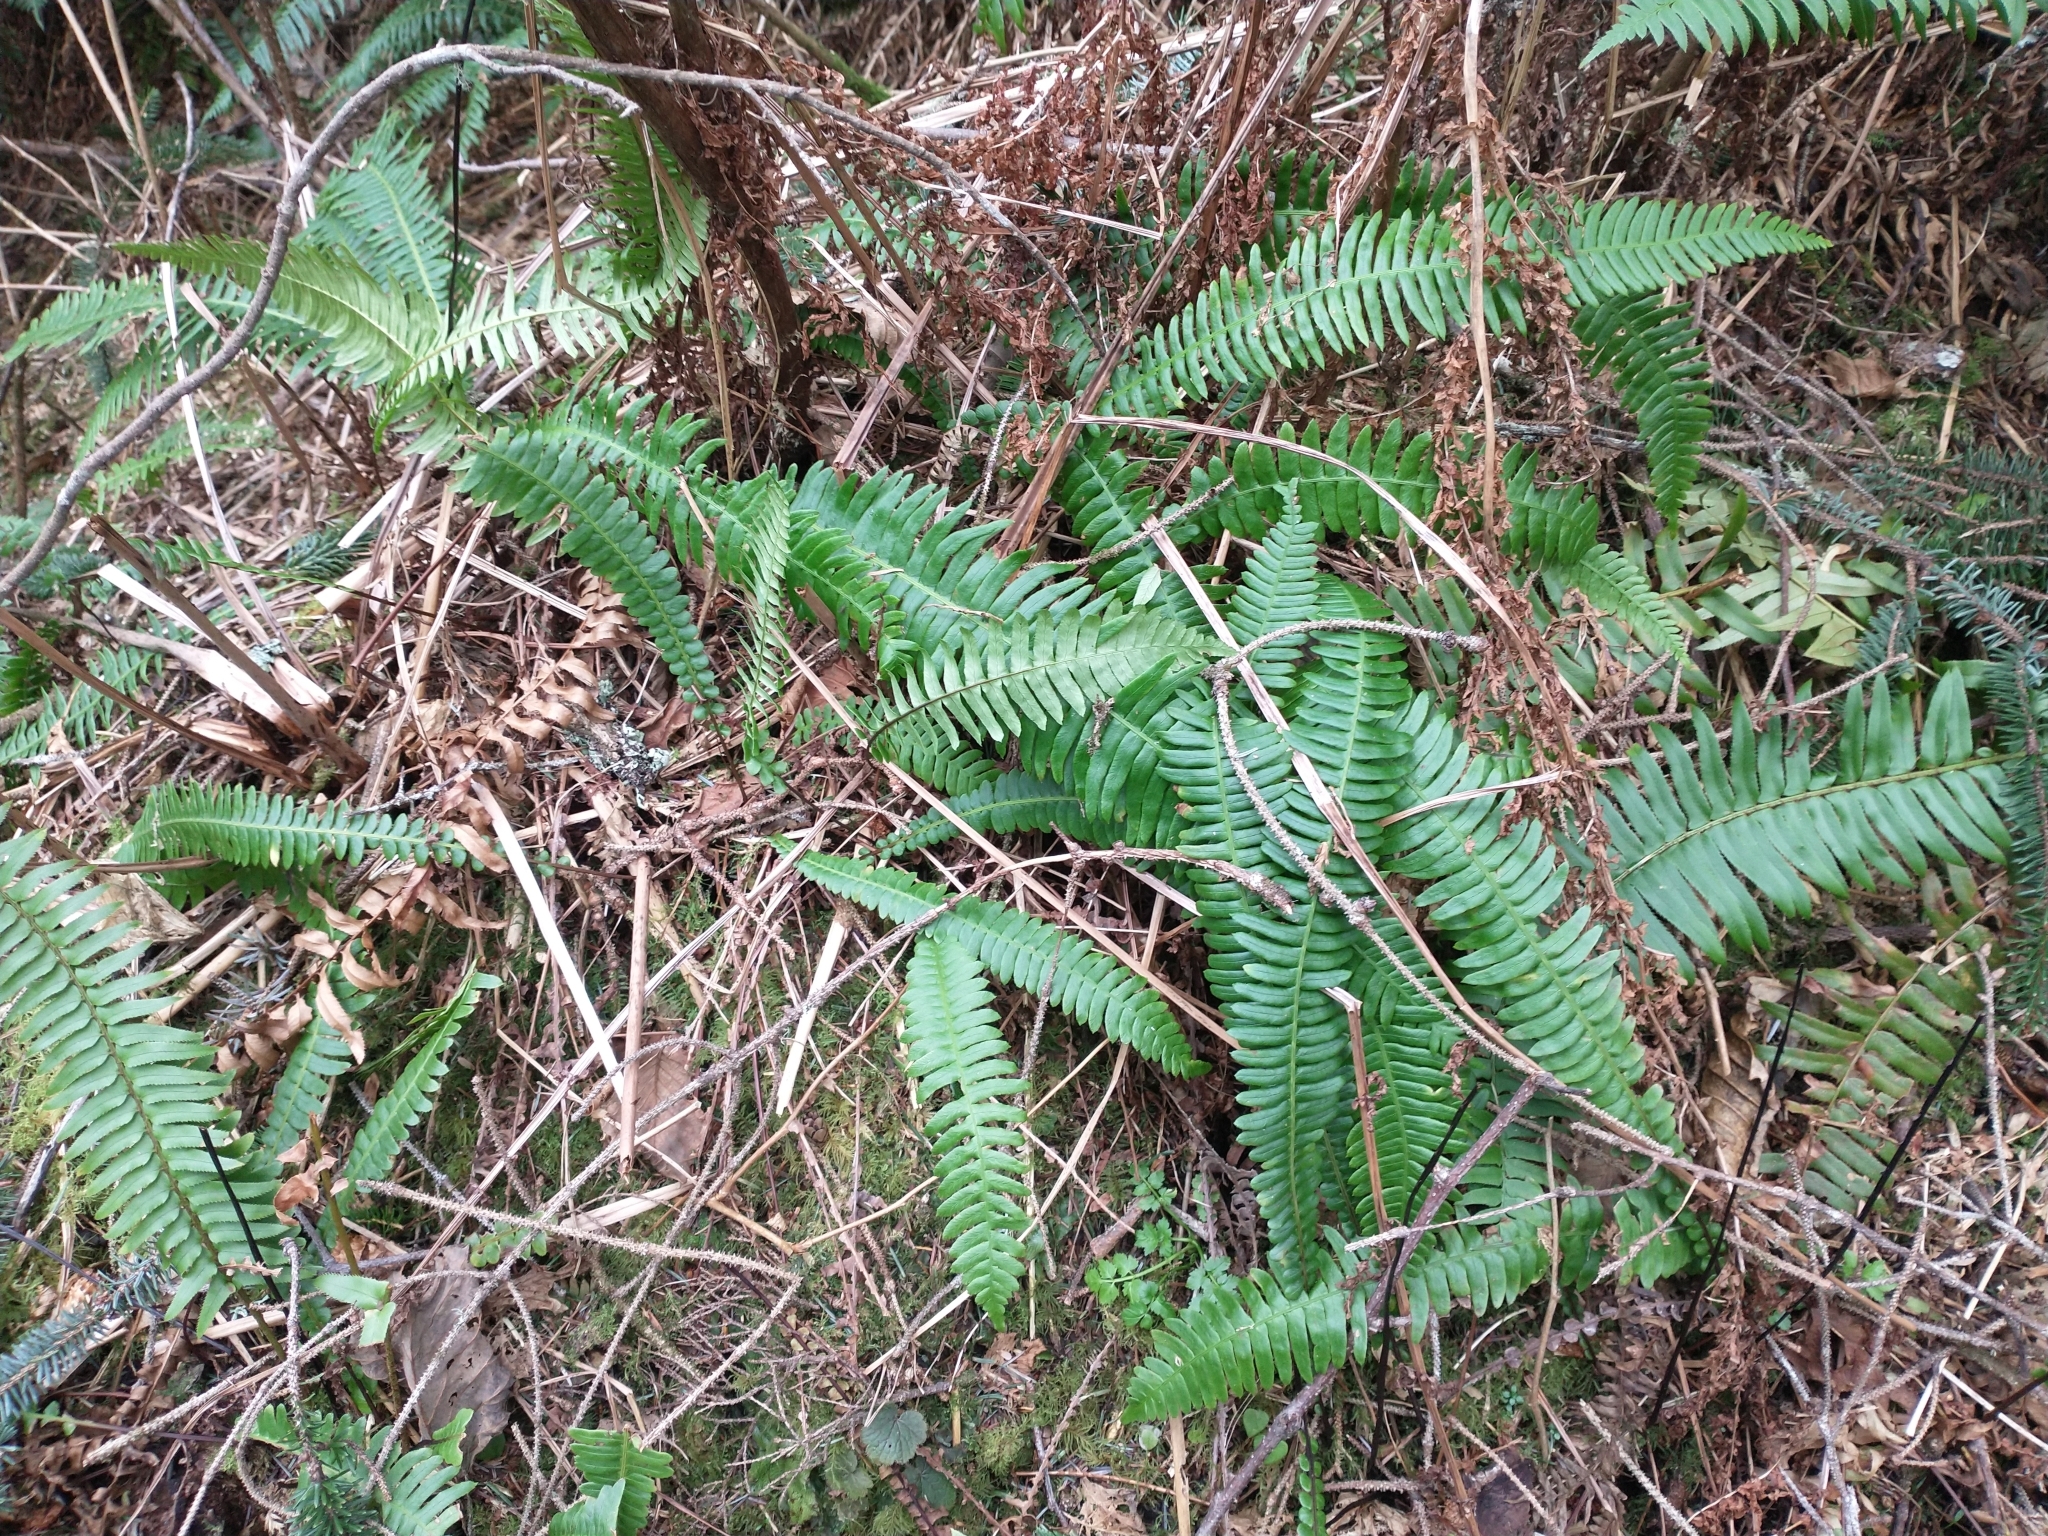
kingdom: Plantae
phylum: Tracheophyta
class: Polypodiopsida
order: Polypodiales
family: Blechnaceae
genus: Struthiopteris
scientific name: Struthiopteris spicant
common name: Deer fern
